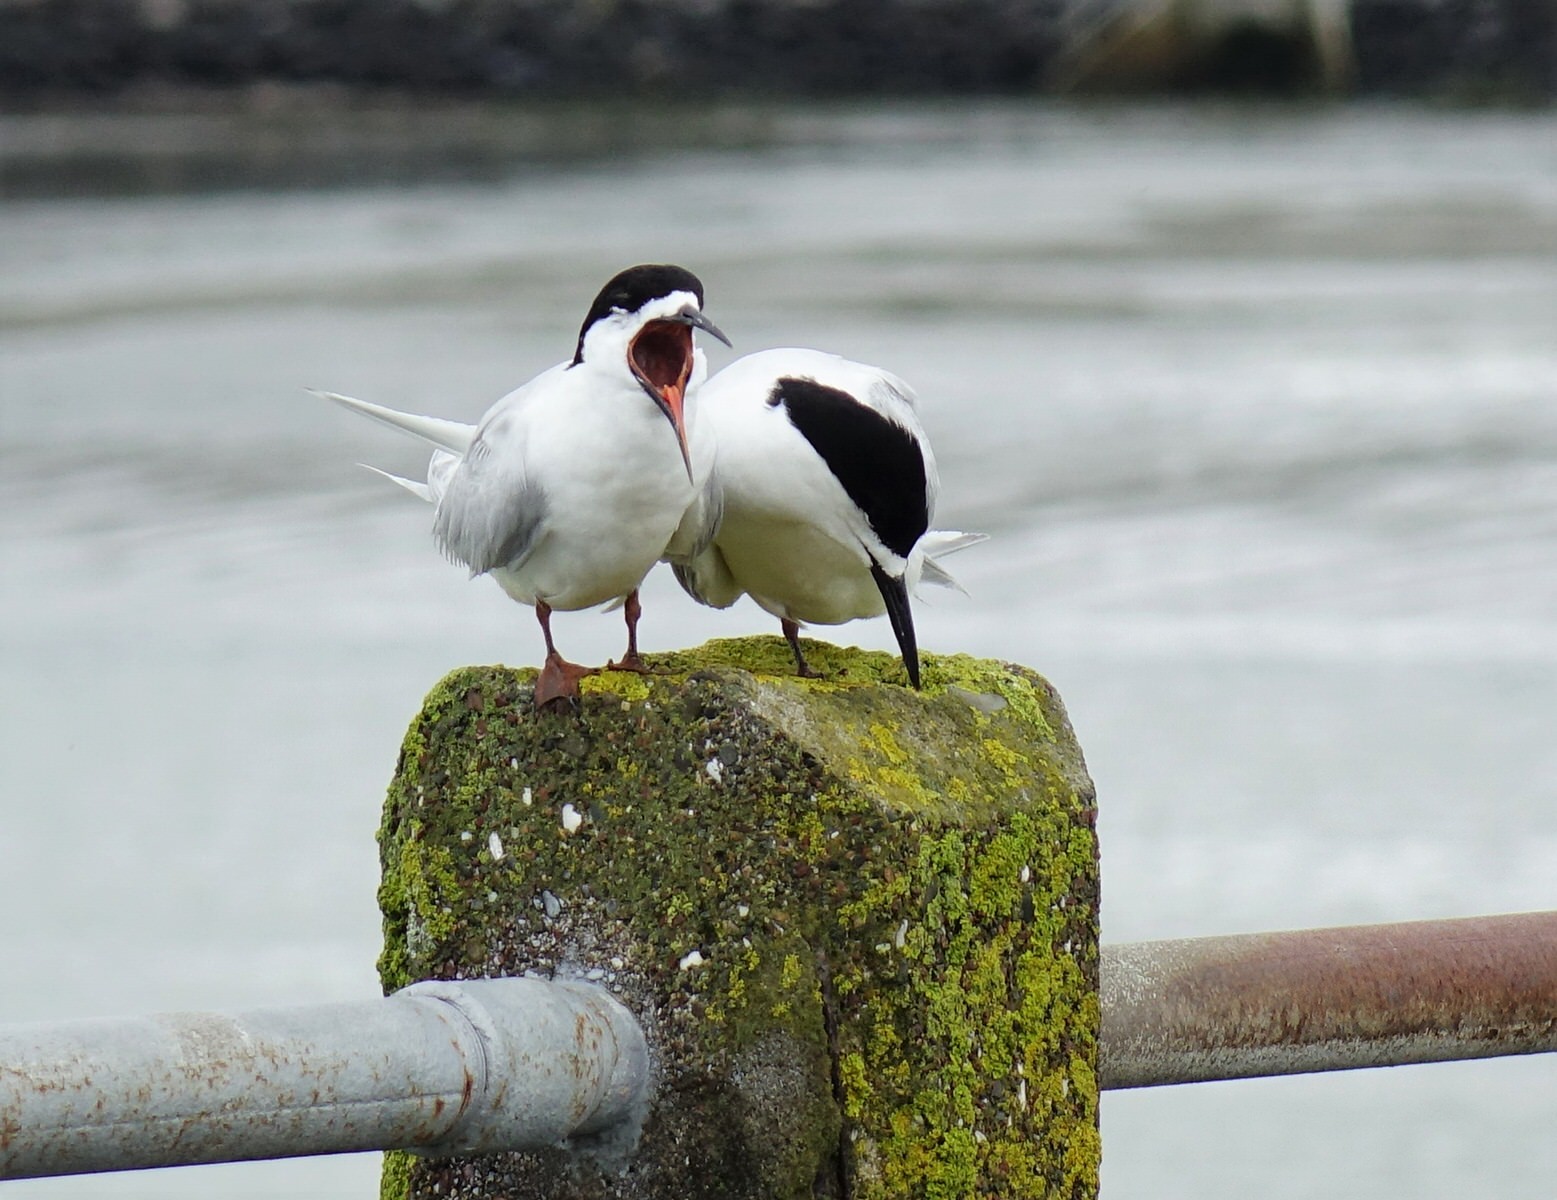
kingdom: Animalia
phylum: Chordata
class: Aves
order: Charadriiformes
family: Laridae
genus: Sterna
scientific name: Sterna striata
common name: White-fronted tern
